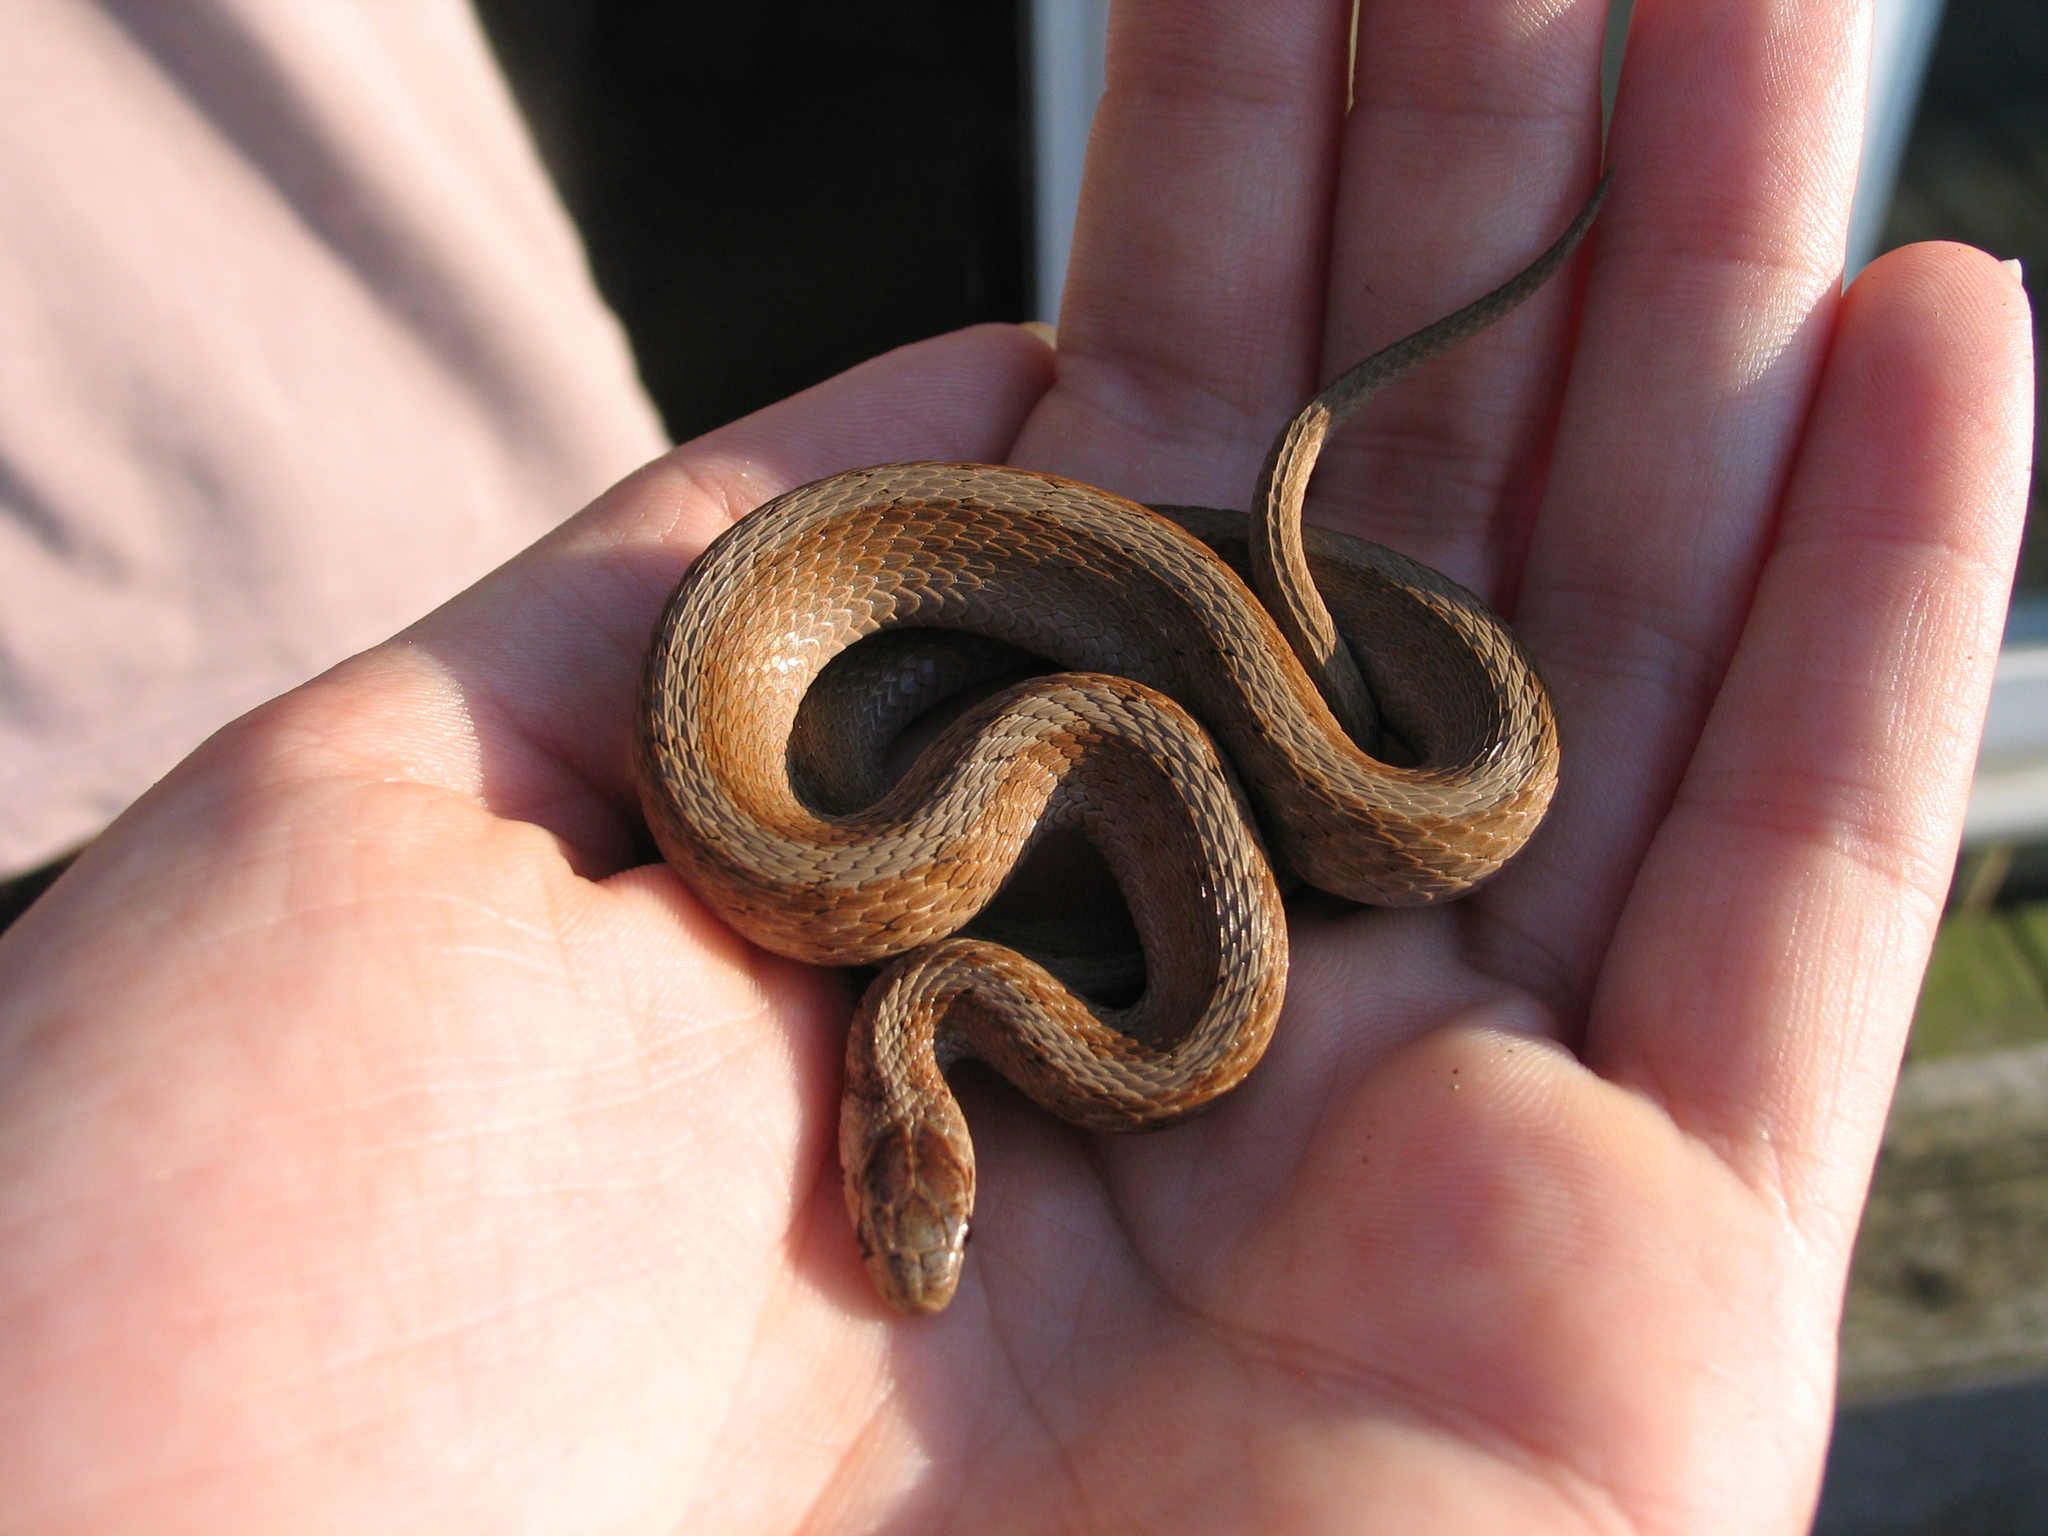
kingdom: Animalia
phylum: Chordata
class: Squamata
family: Colubridae
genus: Storeria
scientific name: Storeria dekayi
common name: (dekay’s) brown snake
